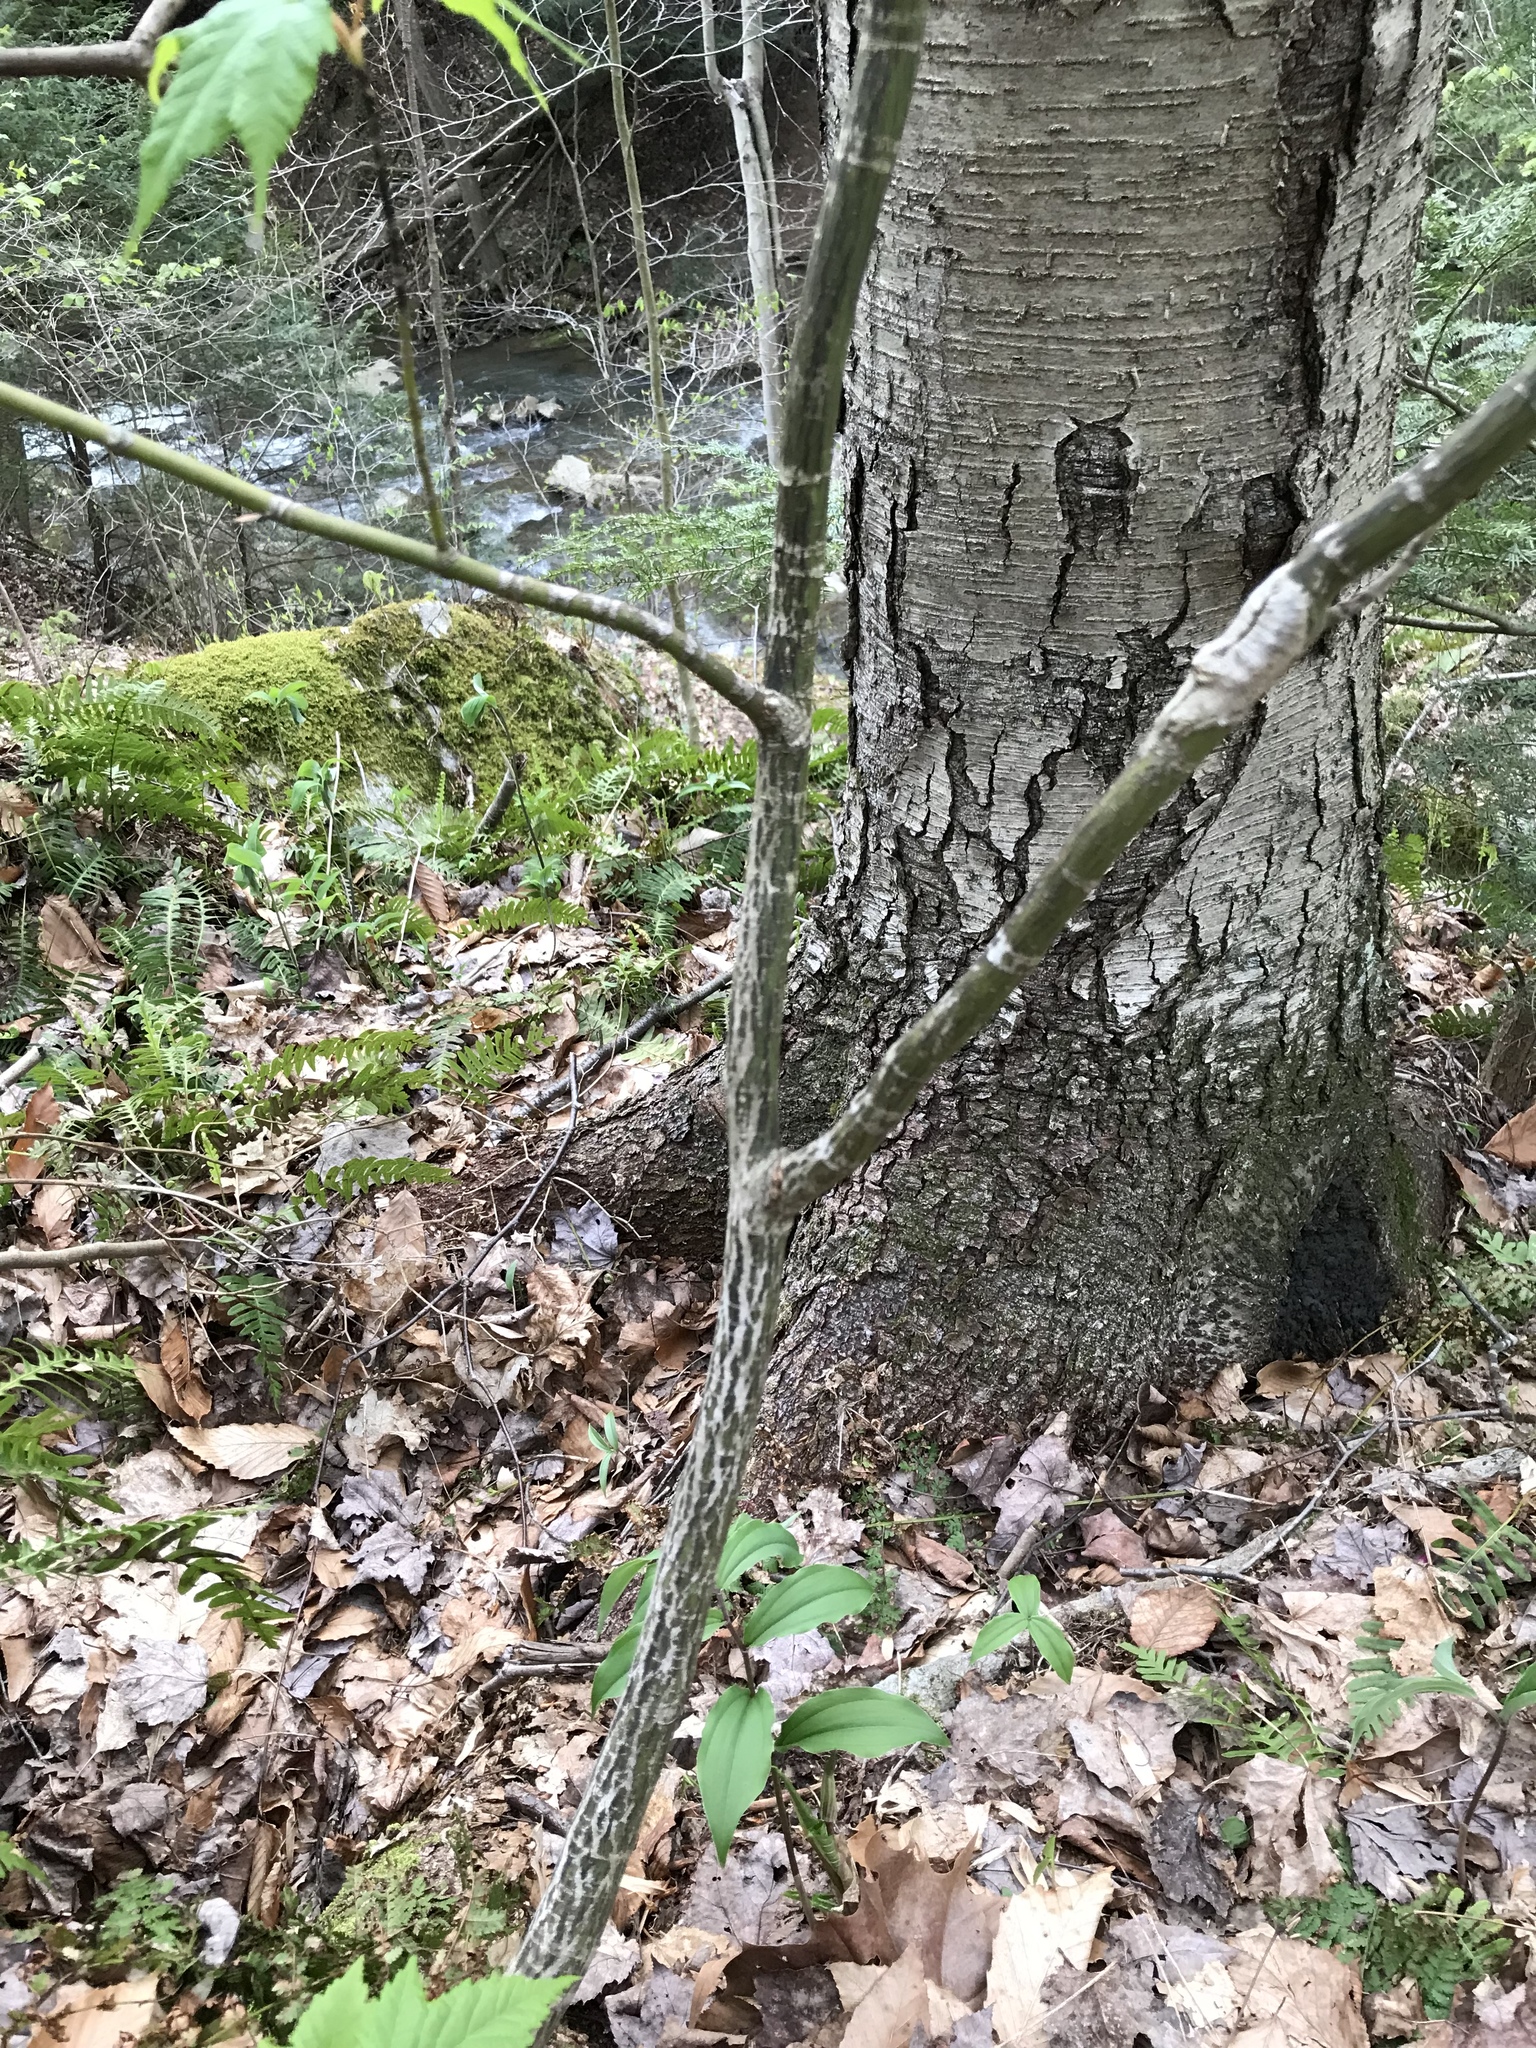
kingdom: Plantae
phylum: Tracheophyta
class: Magnoliopsida
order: Sapindales
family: Sapindaceae
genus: Acer
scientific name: Acer pensylvanicum
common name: Moosewood
